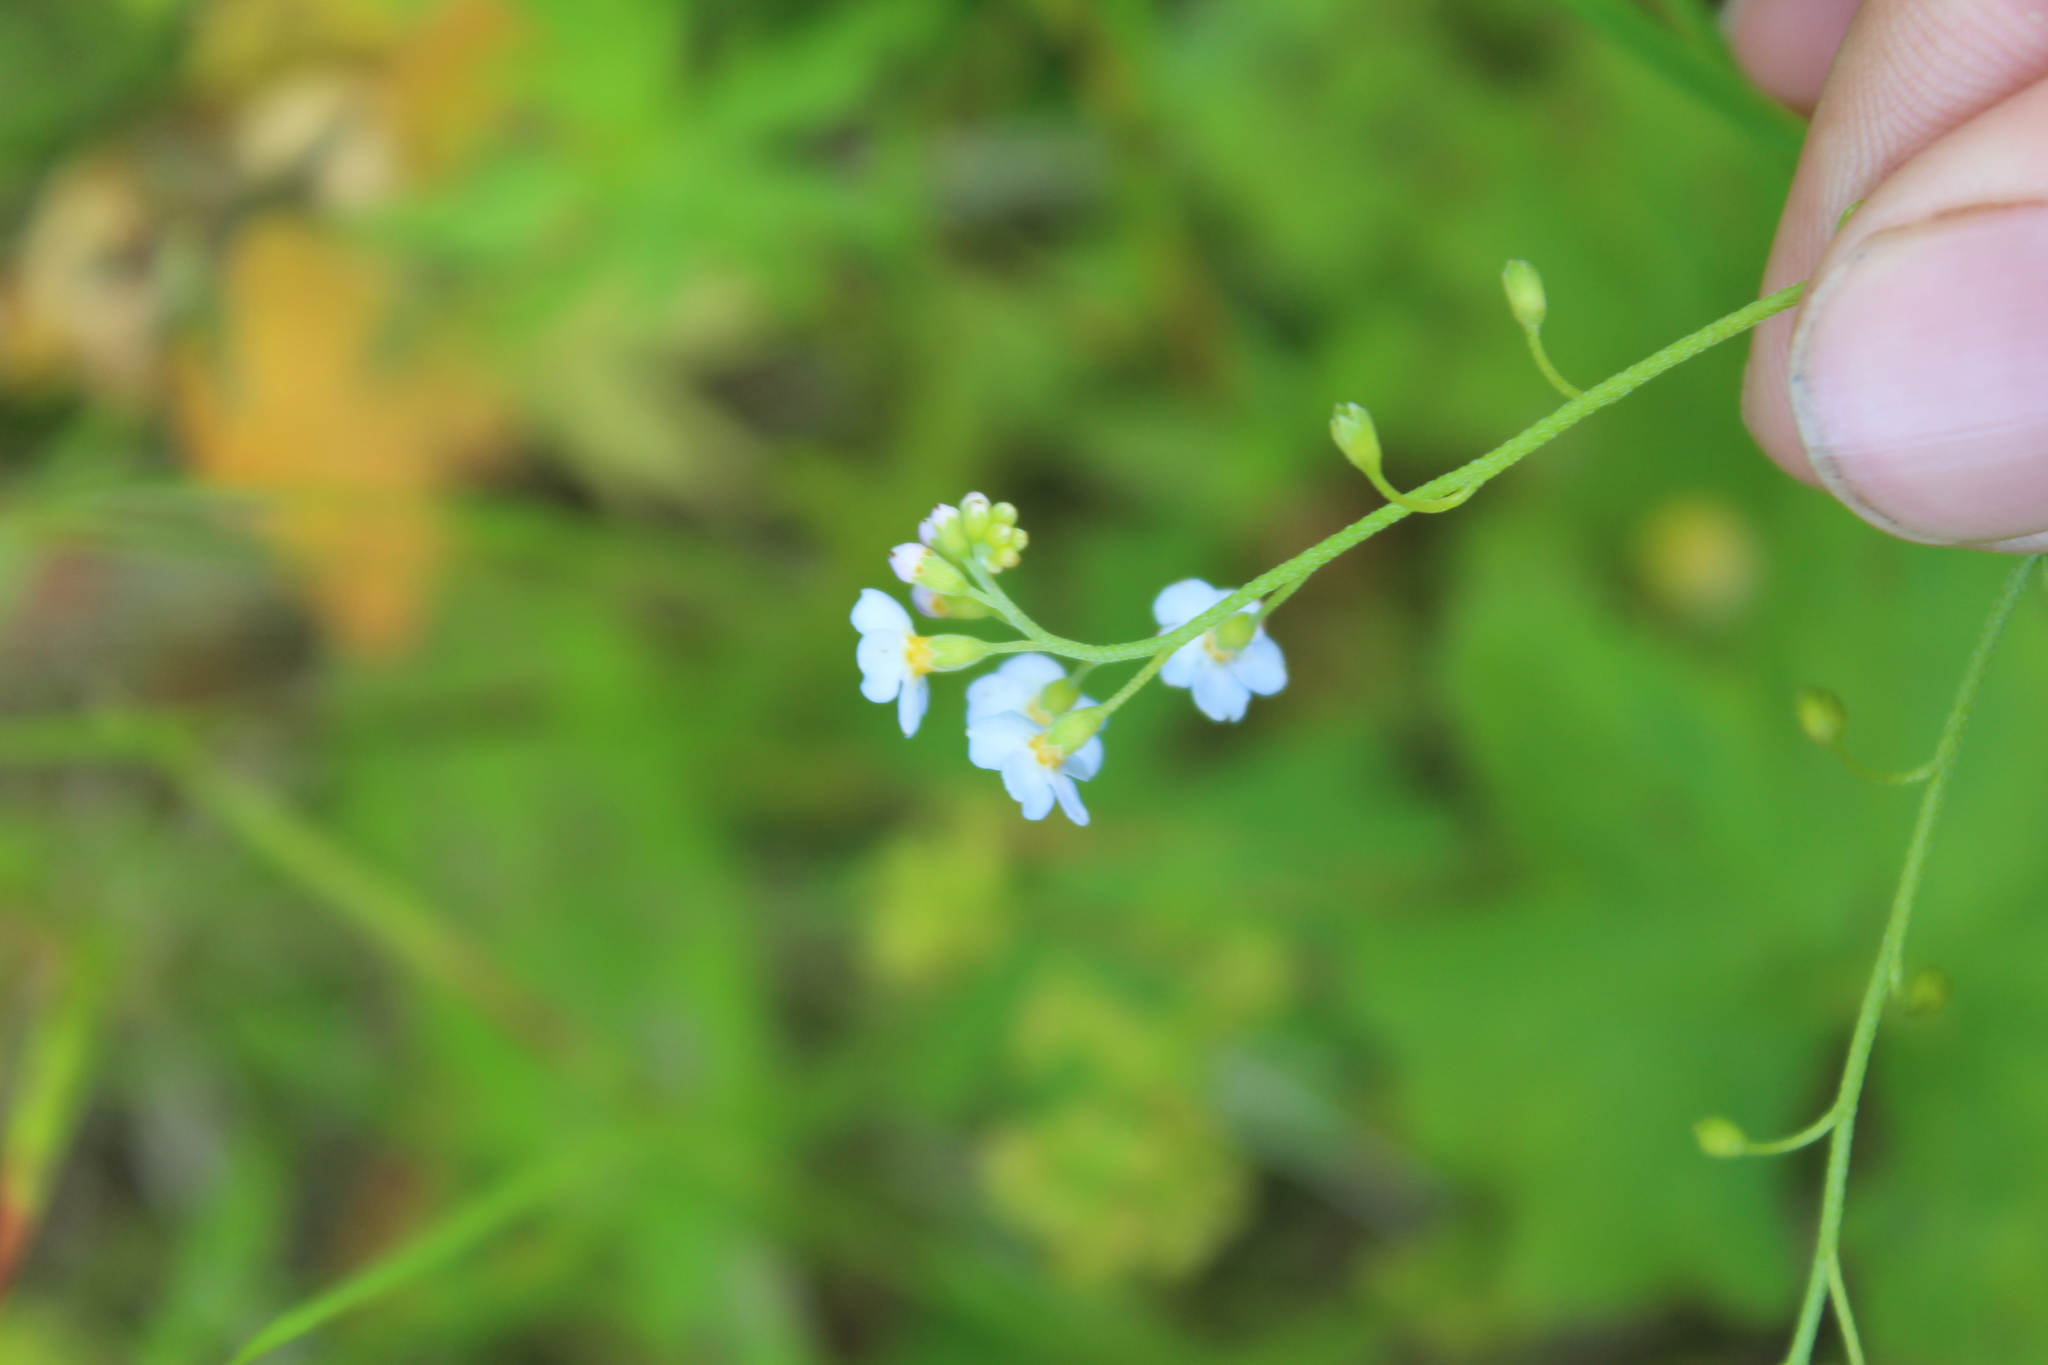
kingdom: Plantae
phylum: Tracheophyta
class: Magnoliopsida
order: Boraginales
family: Boraginaceae
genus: Myosotis
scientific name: Myosotis scorpioides
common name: Water forget-me-not
